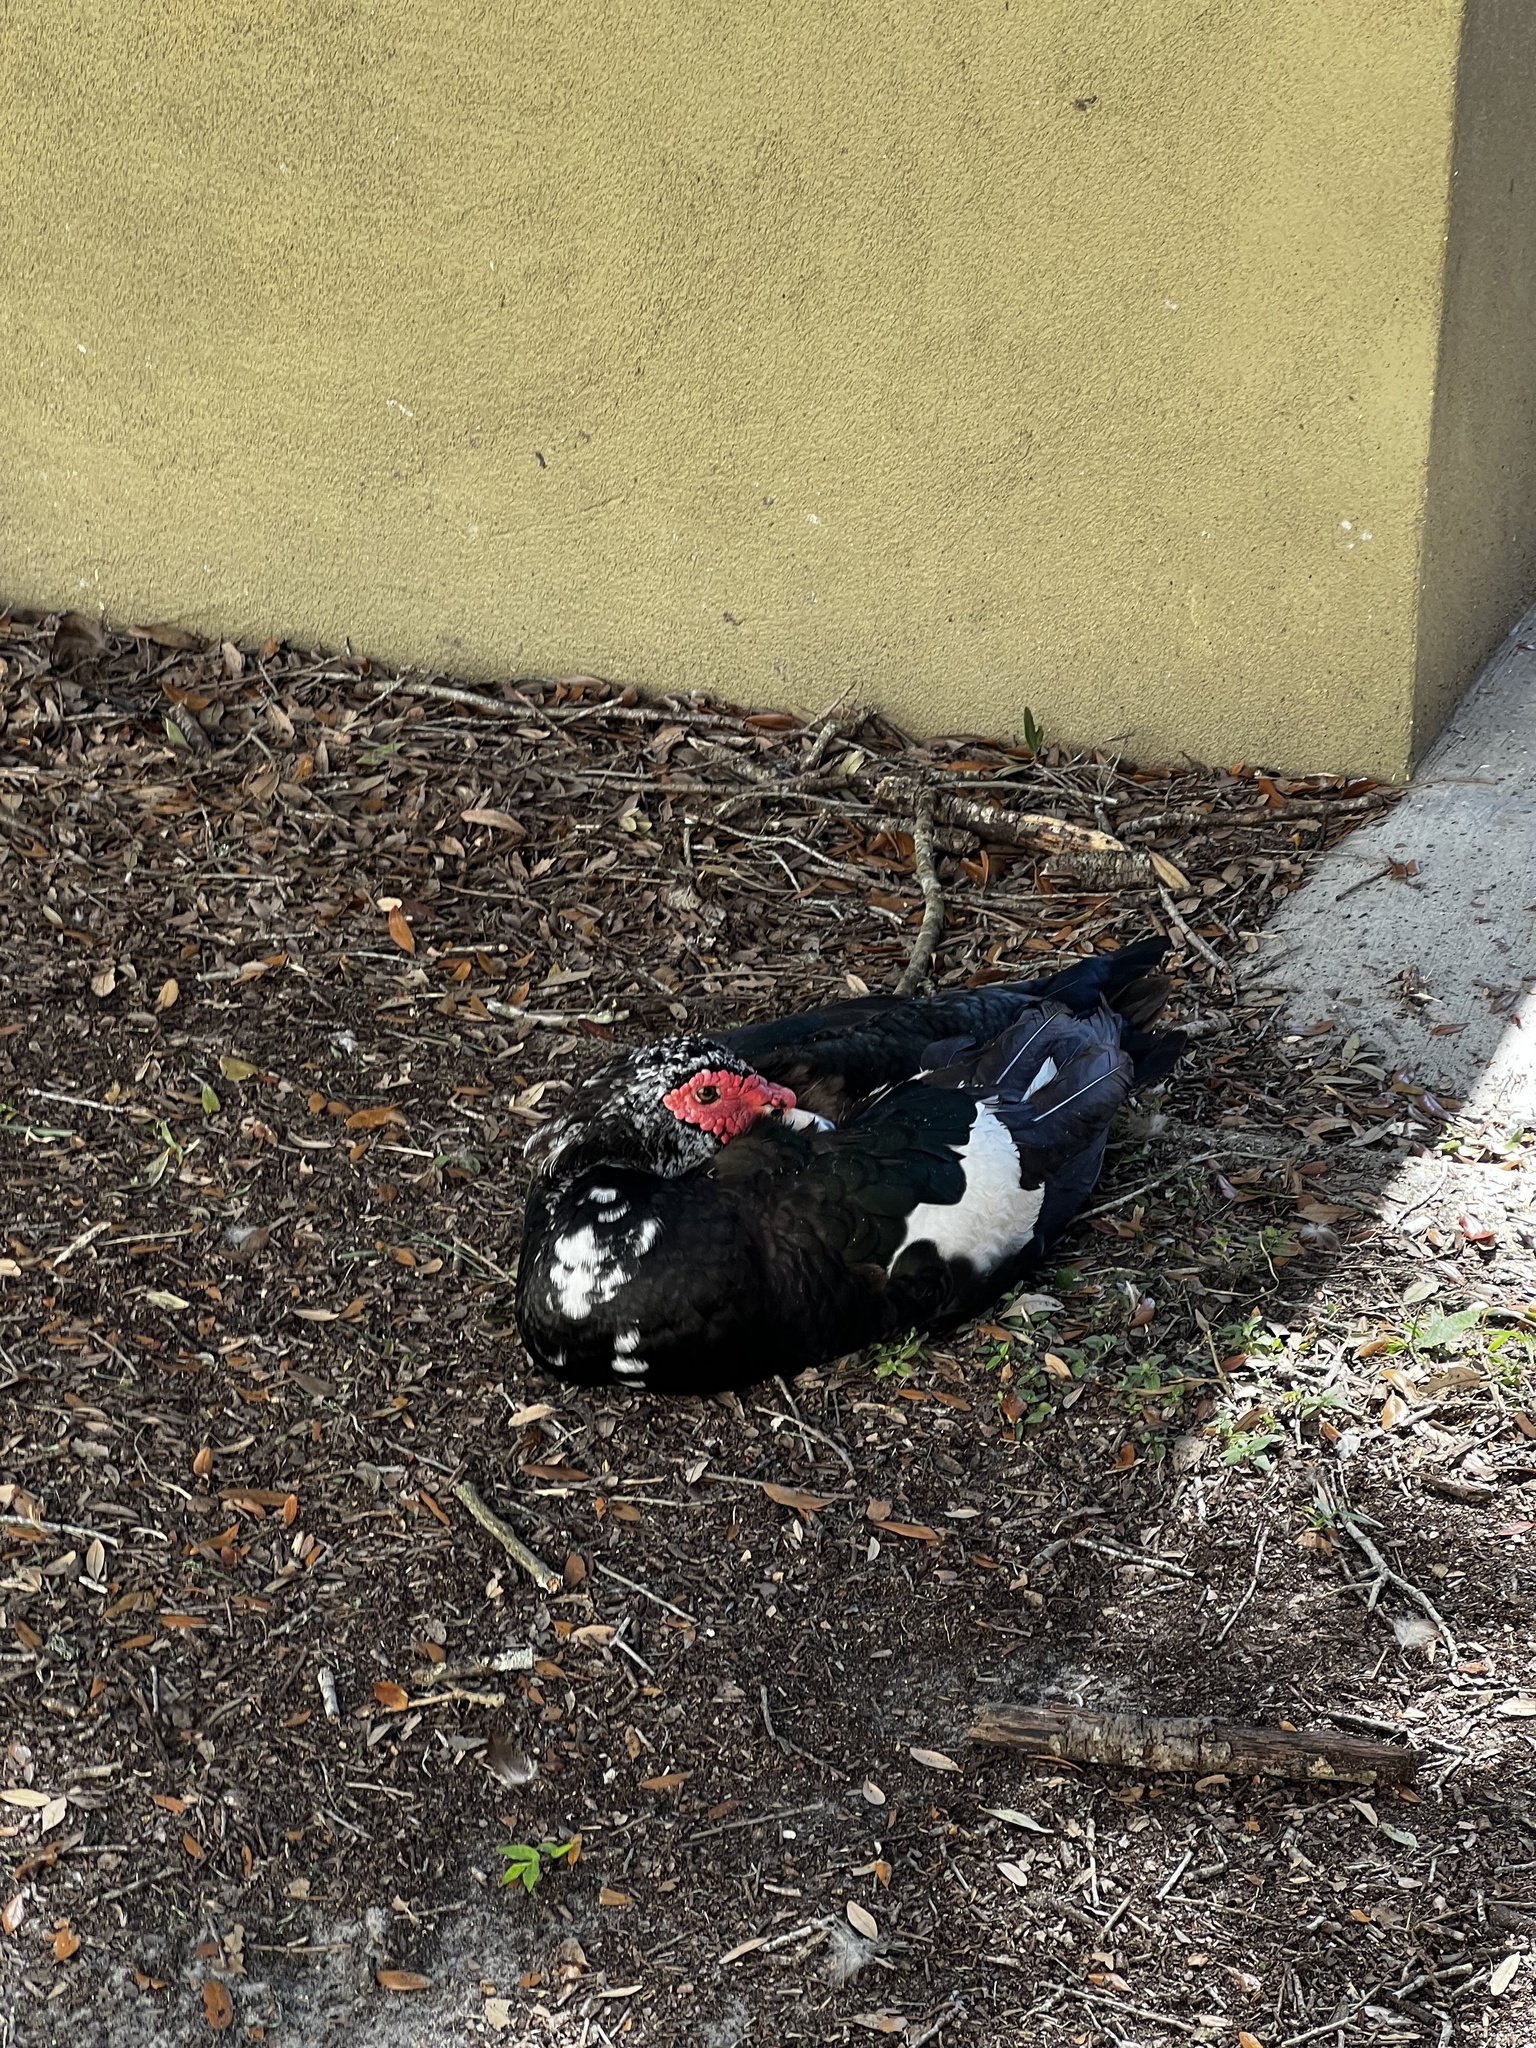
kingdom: Animalia
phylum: Chordata
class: Aves
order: Anseriformes
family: Anatidae
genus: Cairina
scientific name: Cairina moschata
